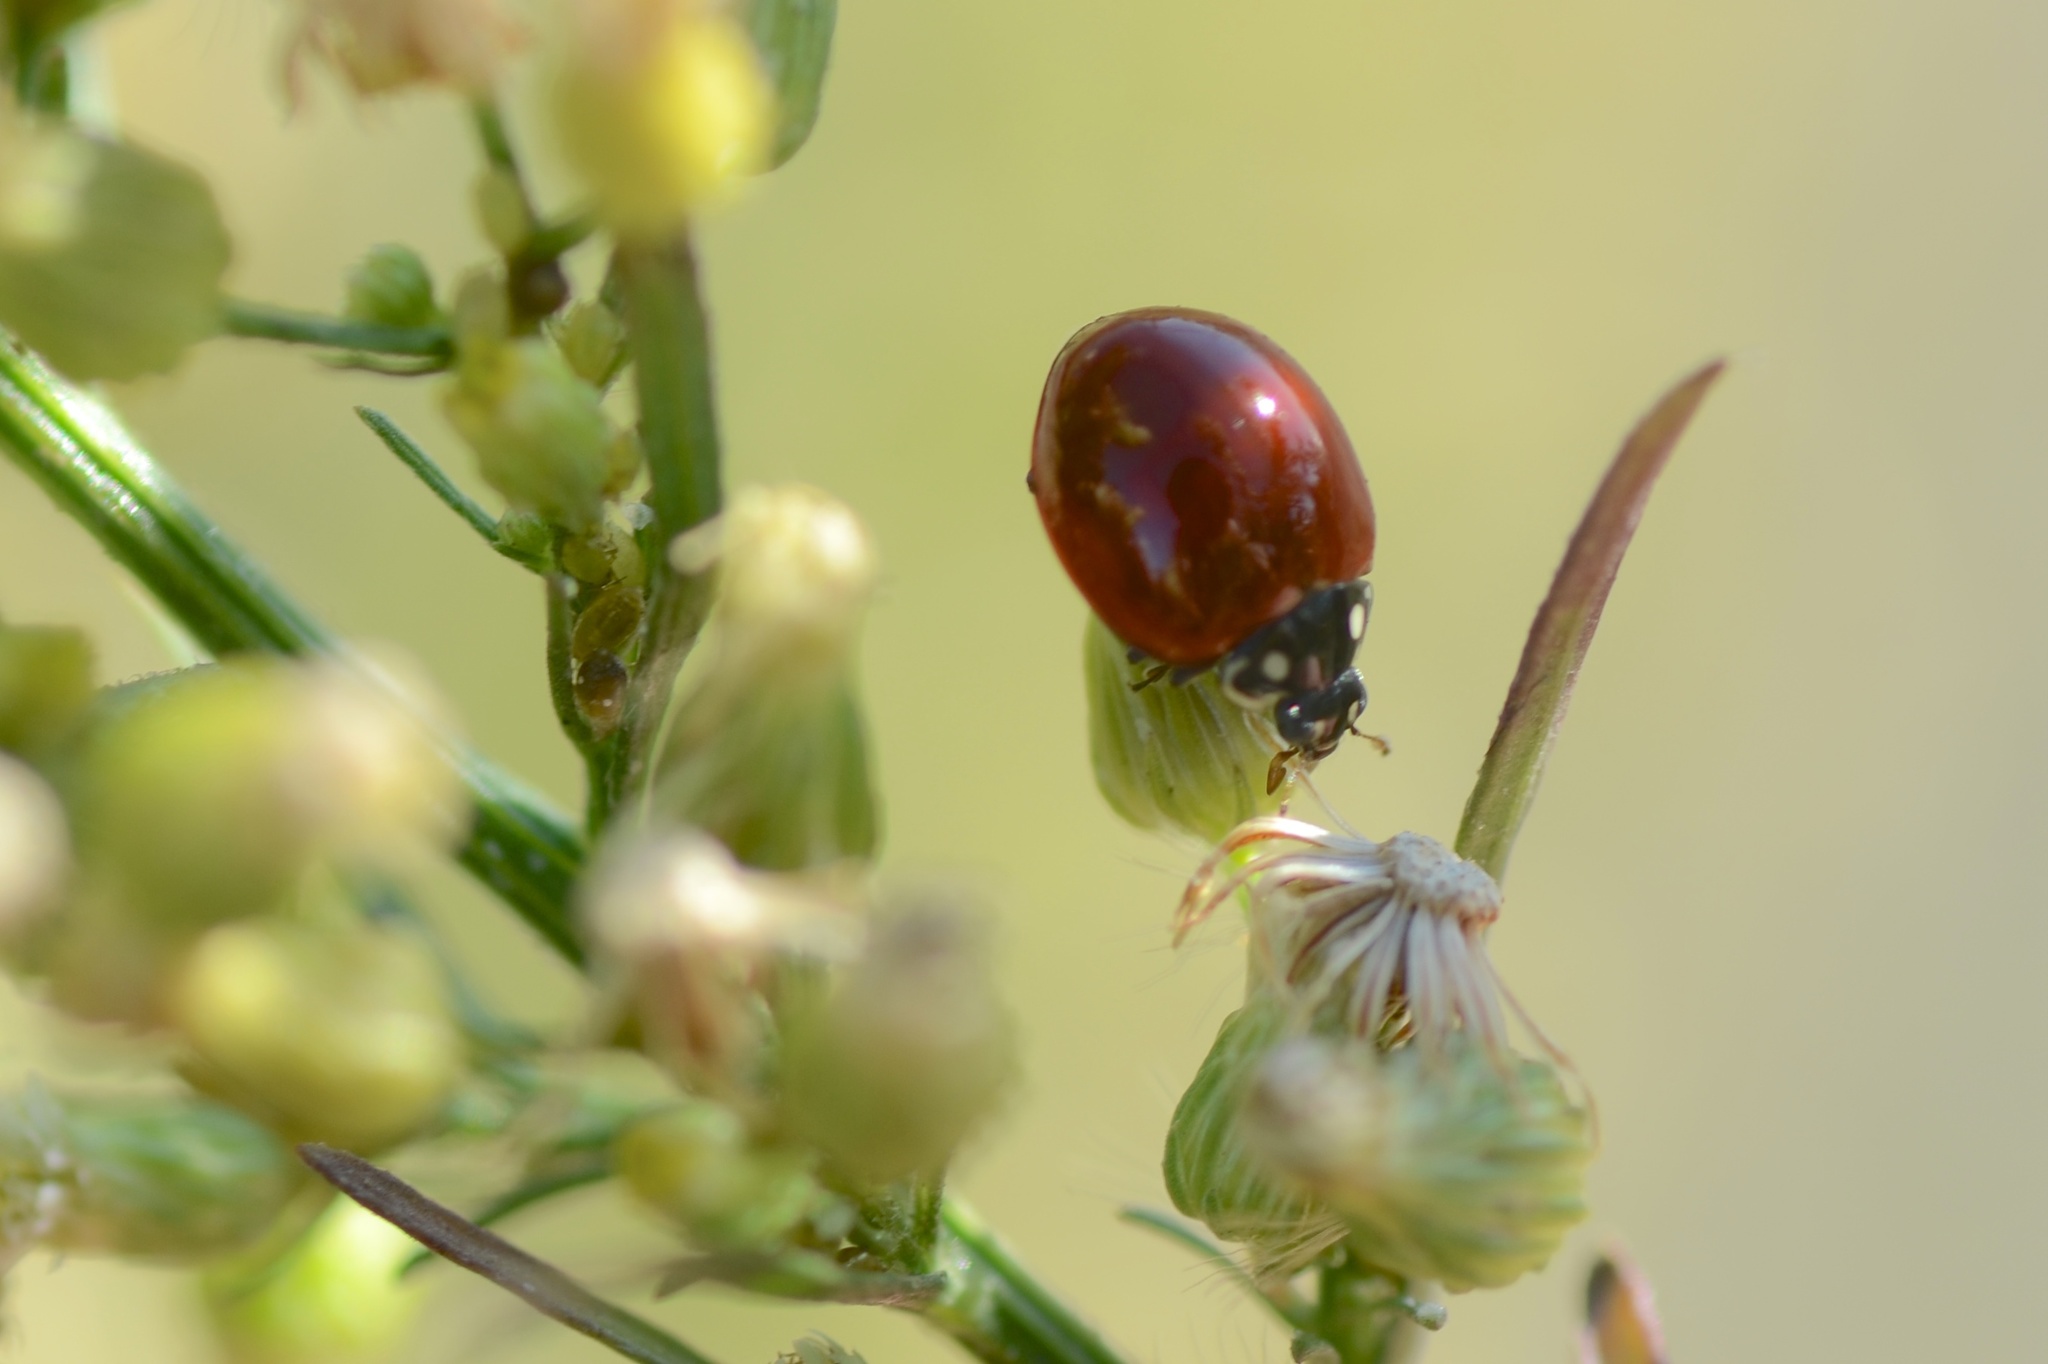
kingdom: Animalia
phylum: Arthropoda
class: Insecta
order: Coleoptera
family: Coccinellidae
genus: Cycloneda
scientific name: Cycloneda sanguinea
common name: Ladybird beetle
